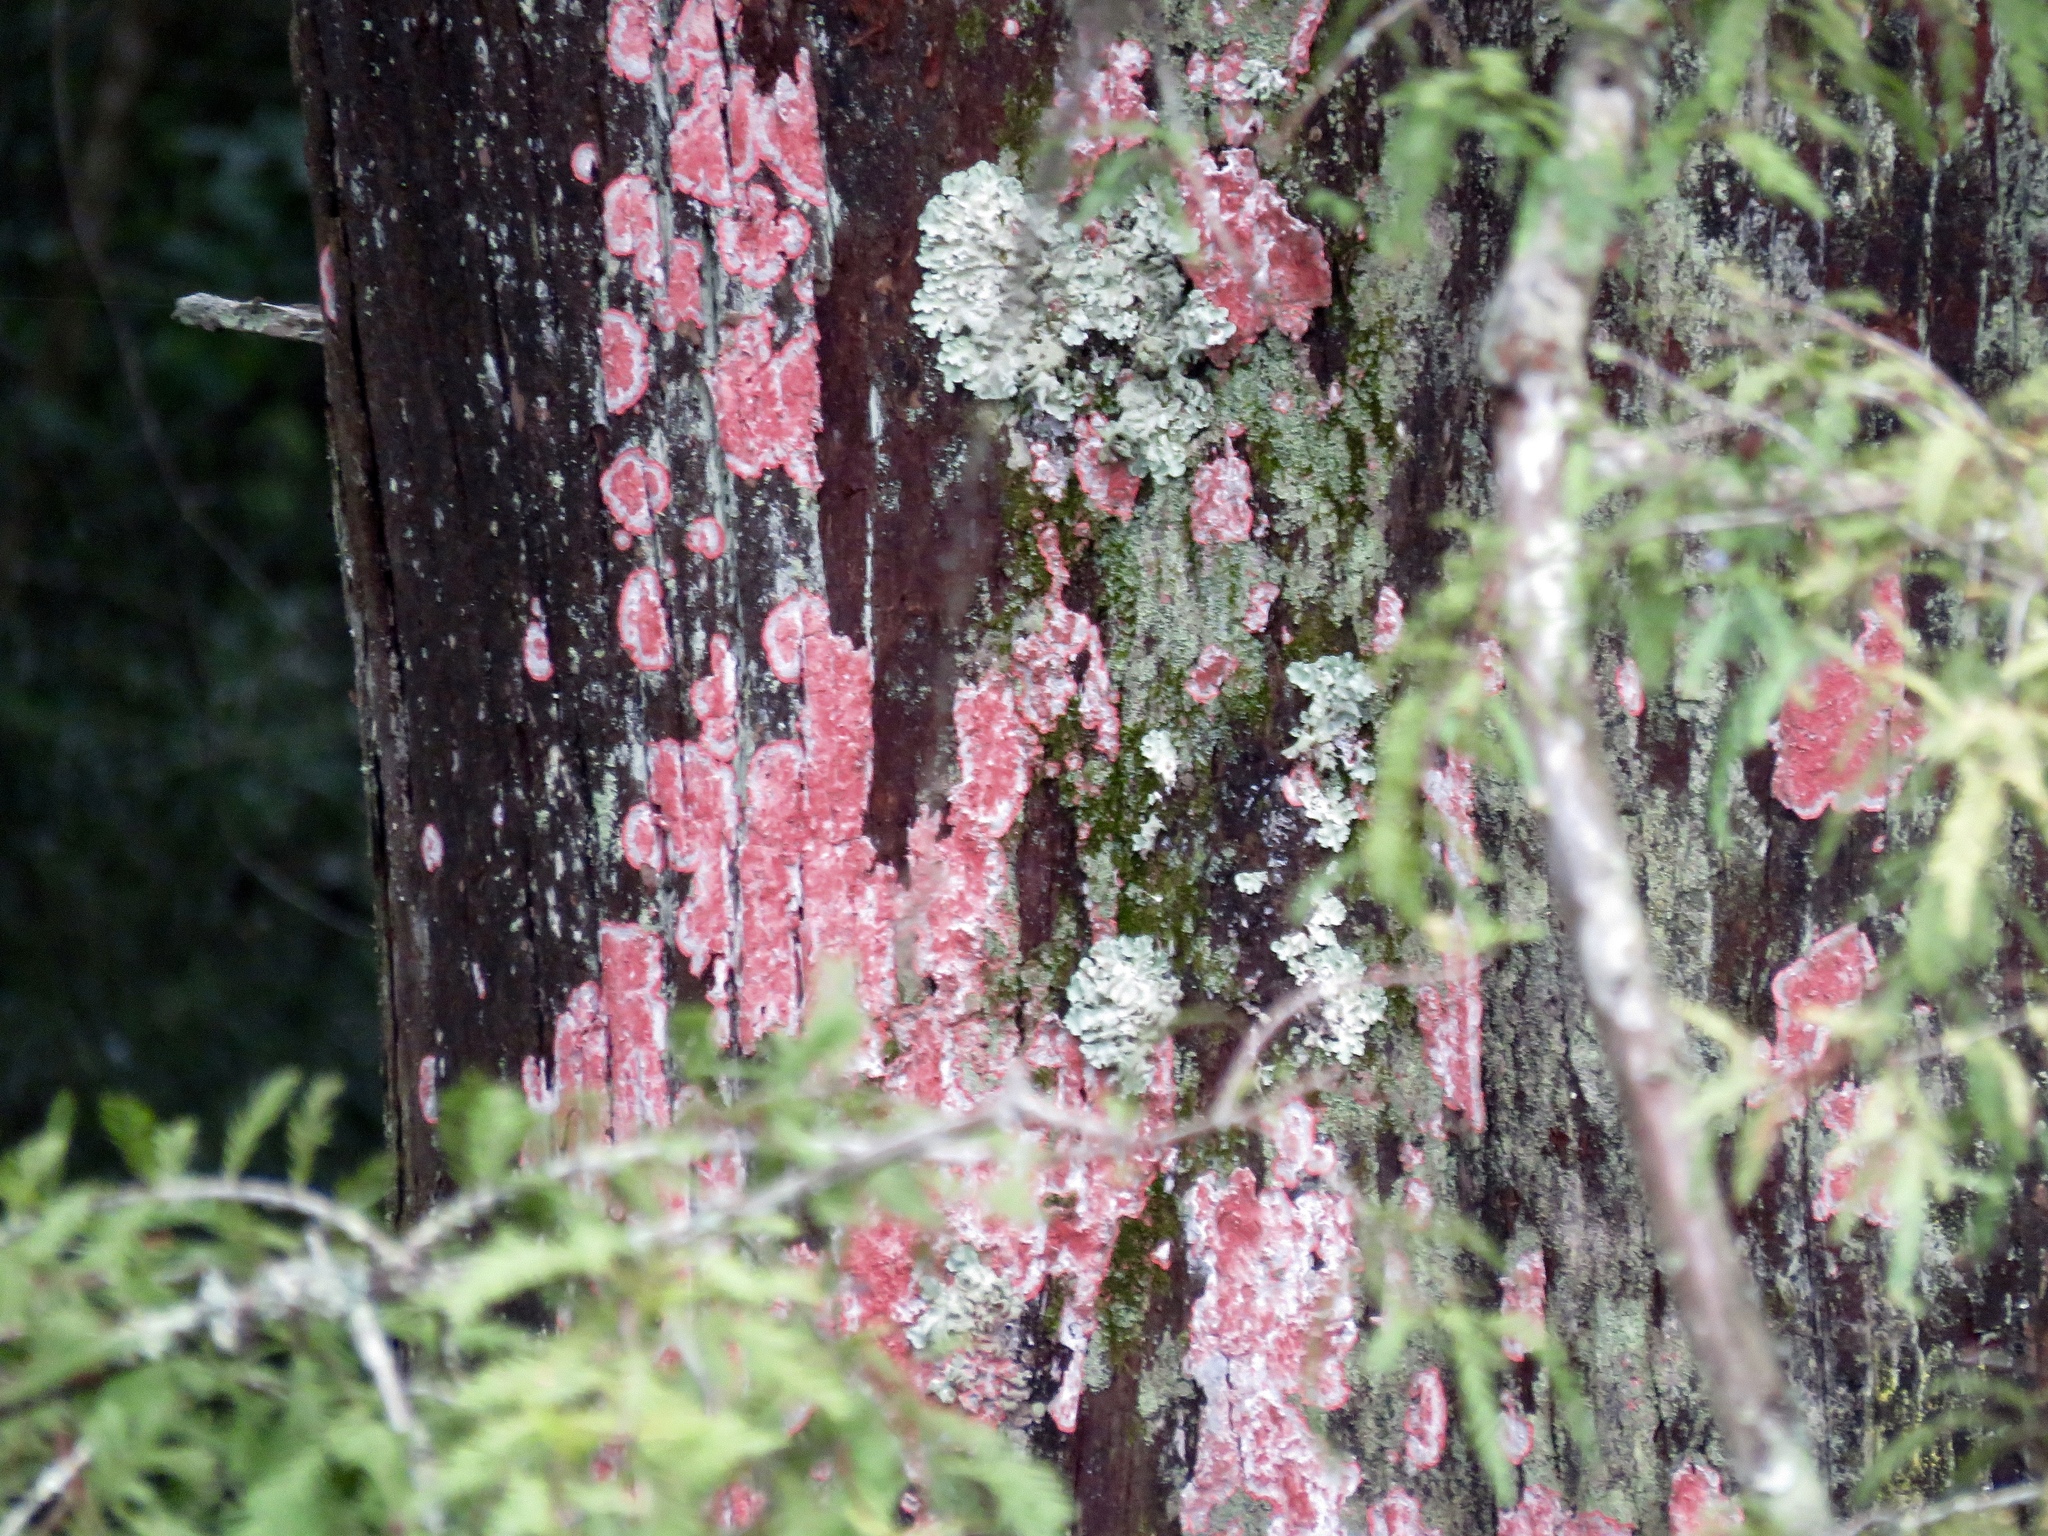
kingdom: Fungi
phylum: Ascomycota
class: Arthoniomycetes
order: Arthoniales
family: Arthoniaceae
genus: Herpothallon
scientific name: Herpothallon rubrocinctum
